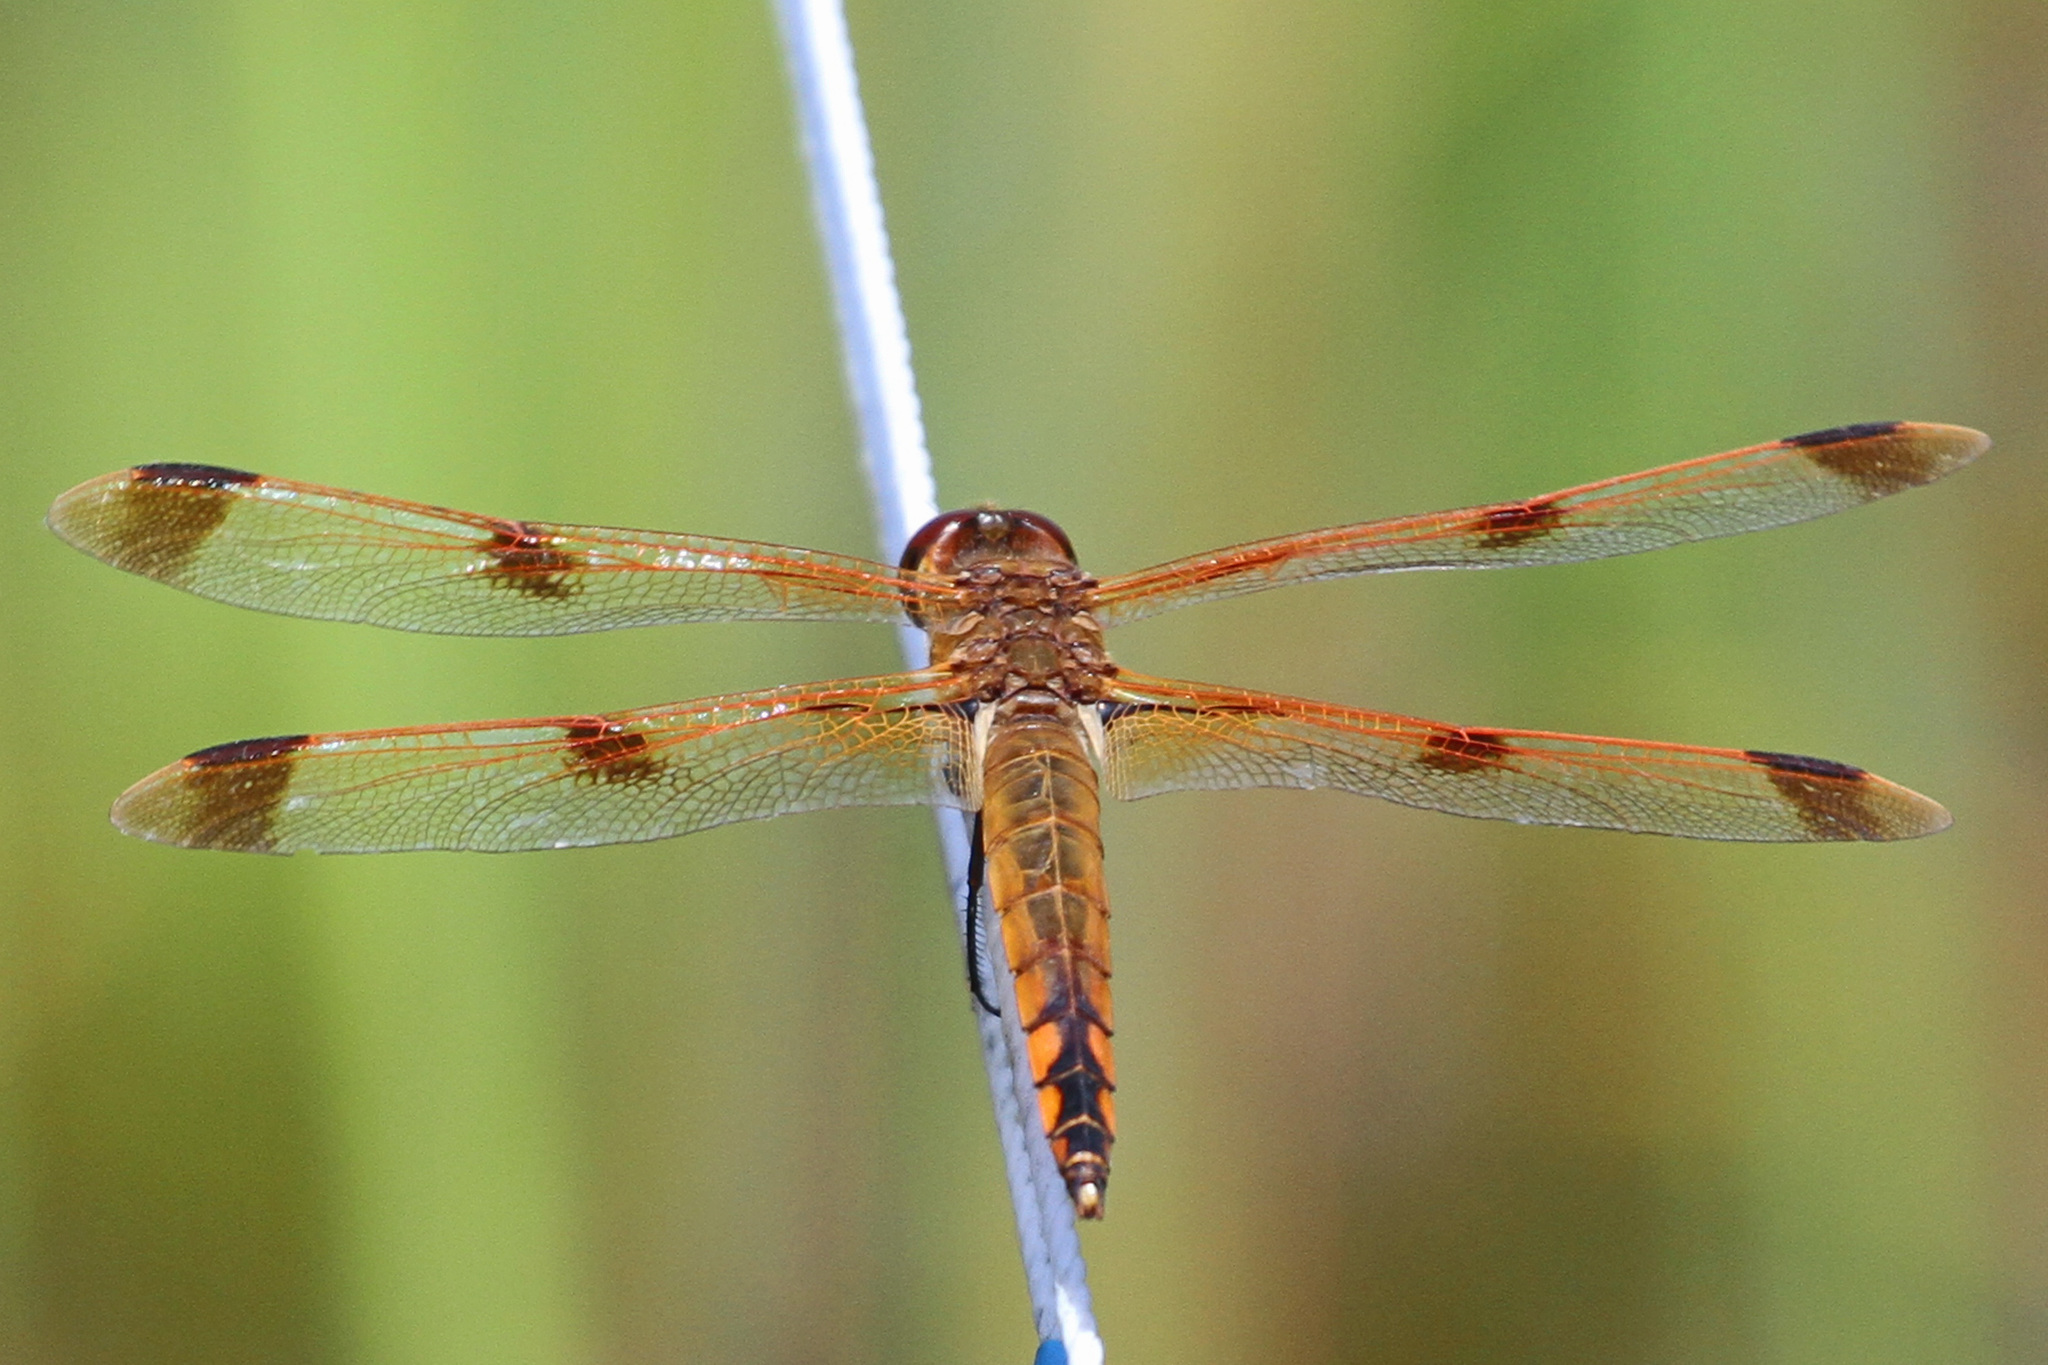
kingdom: Animalia
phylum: Arthropoda
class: Insecta
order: Odonata
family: Libellulidae
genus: Libellula
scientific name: Libellula semifasciata
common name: Painted skimmer
